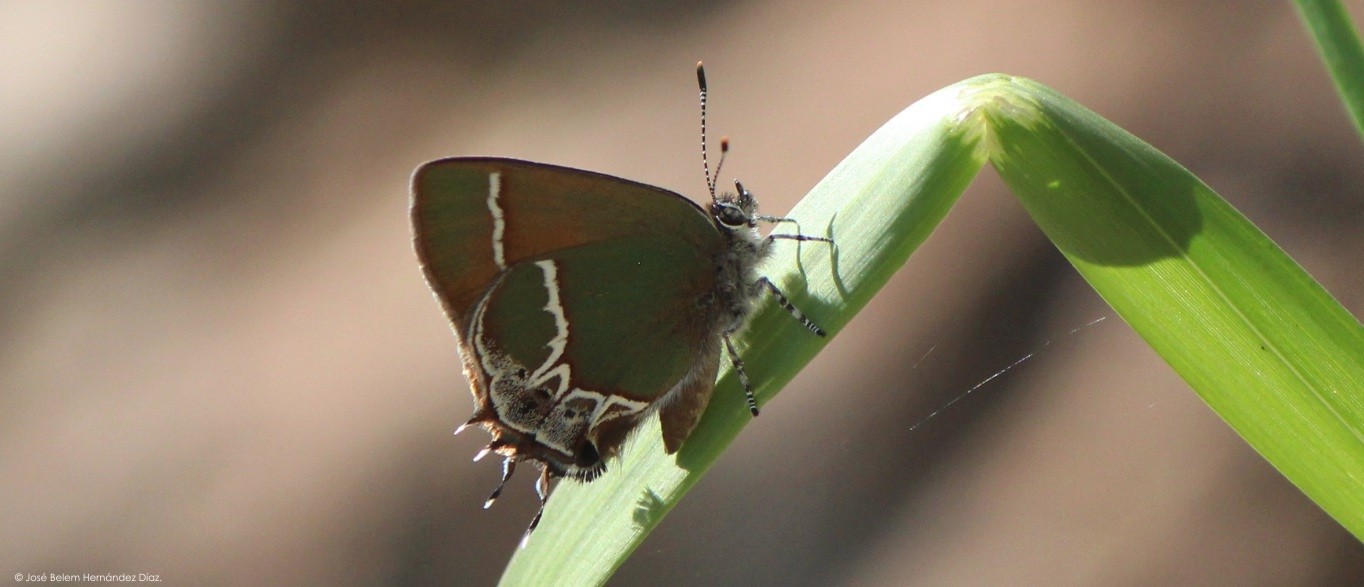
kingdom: Animalia
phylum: Arthropoda
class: Insecta
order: Lepidoptera
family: Lycaenidae
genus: Xamia
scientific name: Xamia xami
